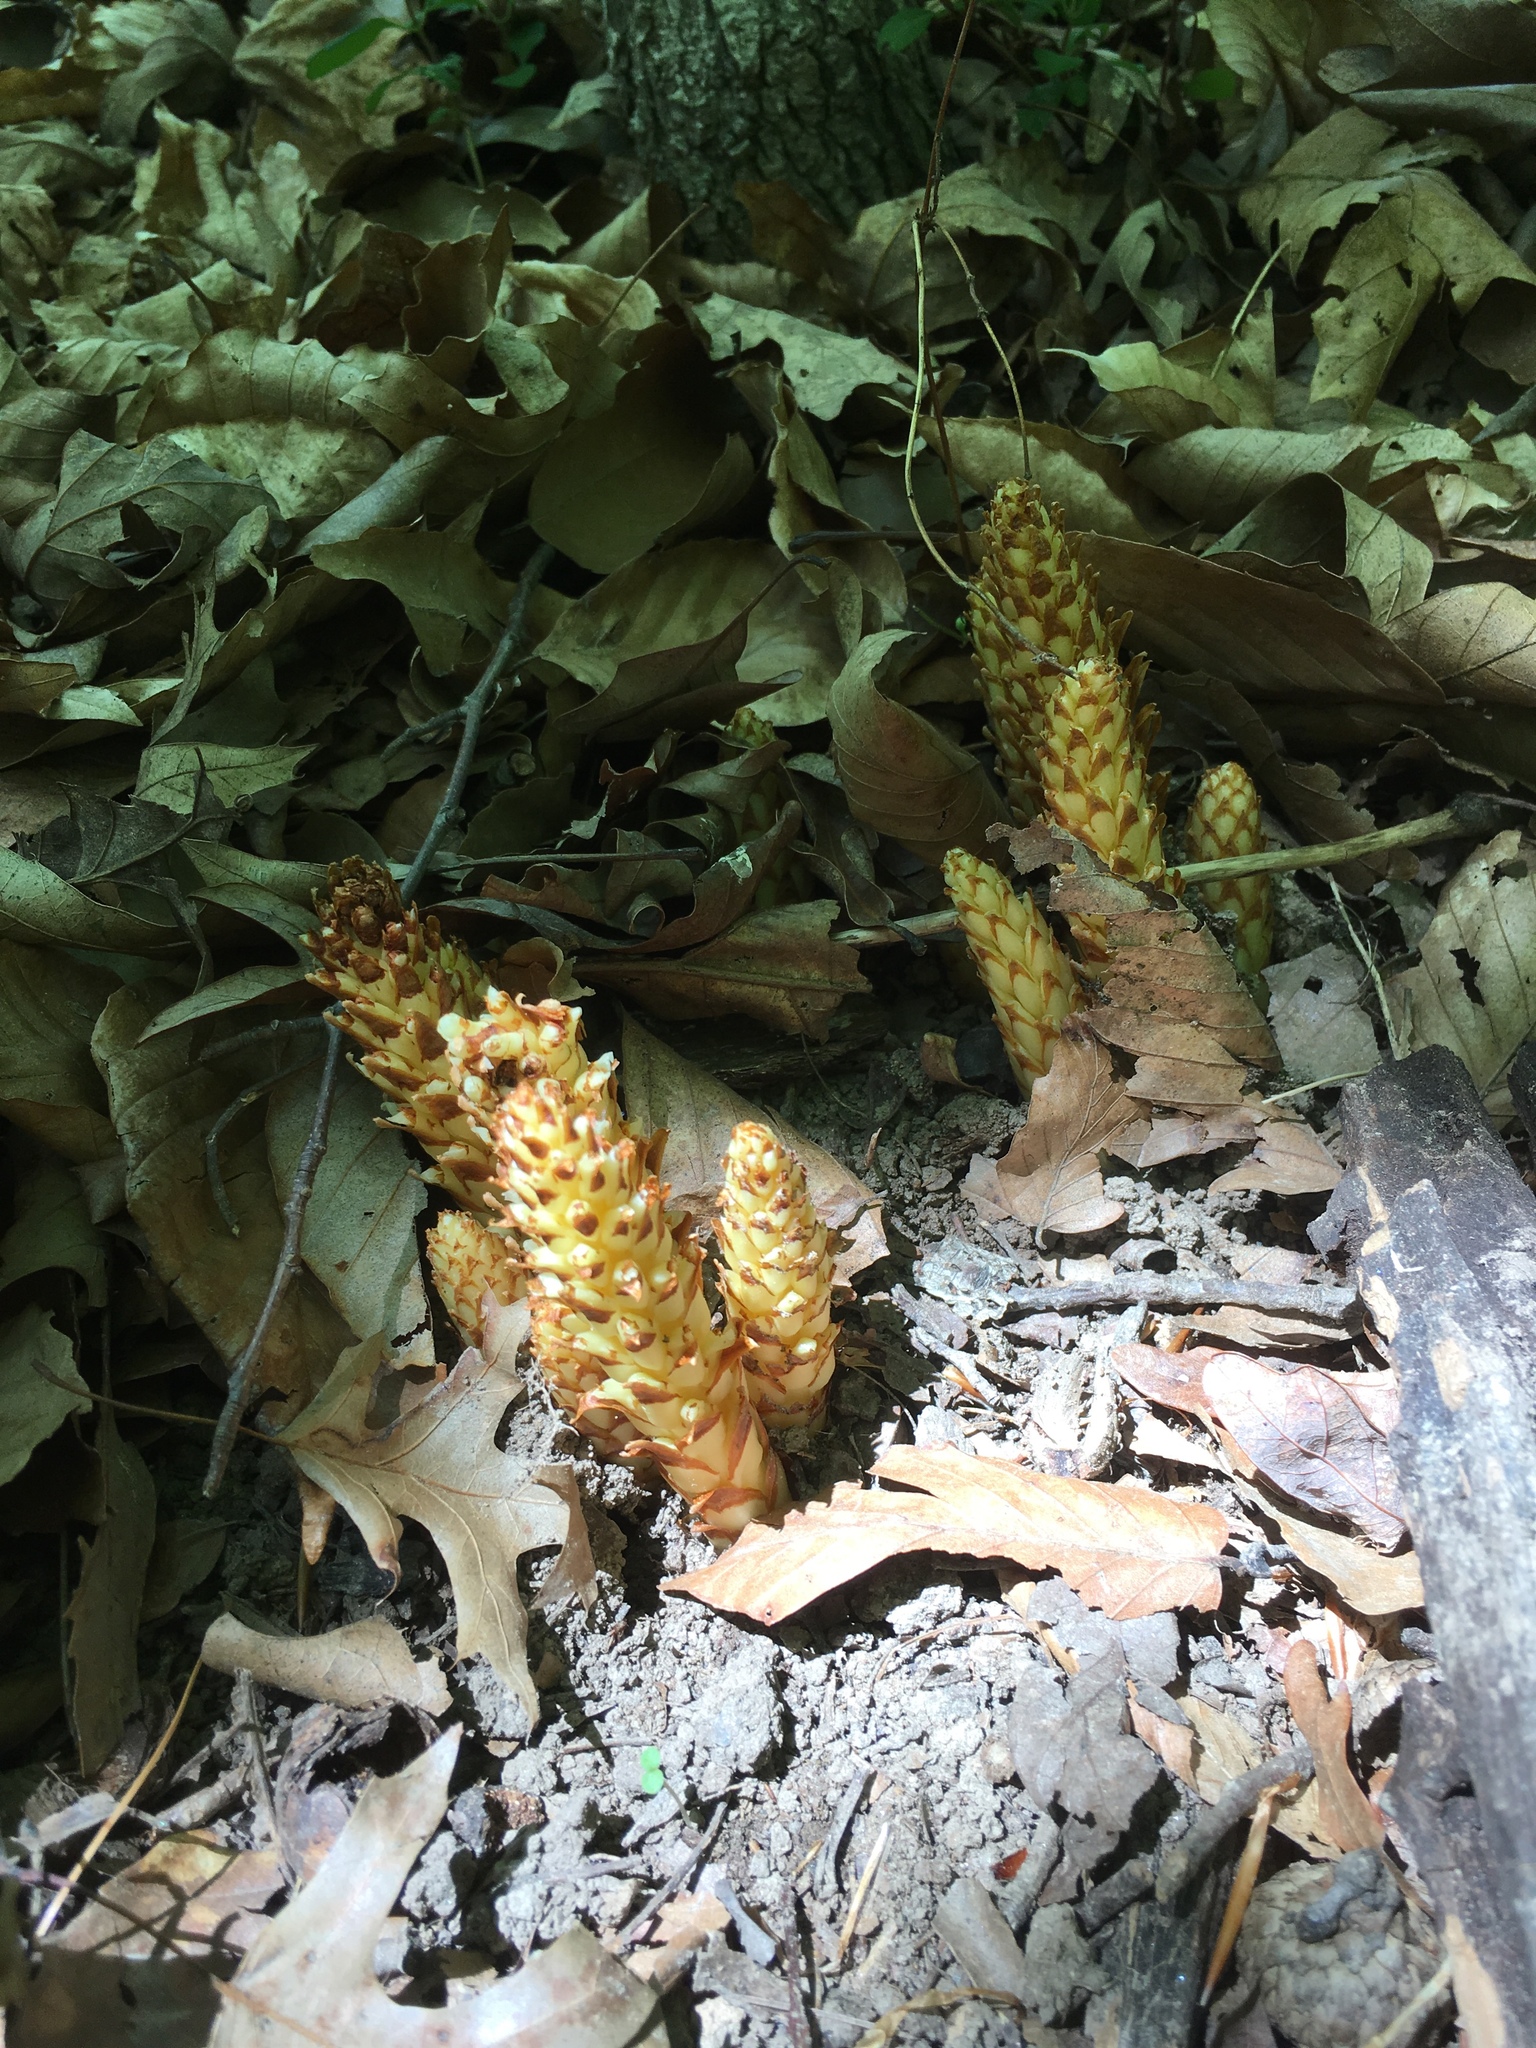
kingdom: Plantae
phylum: Tracheophyta
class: Magnoliopsida
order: Lamiales
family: Orobanchaceae
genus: Conopholis
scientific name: Conopholis americana
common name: American cancer-root
